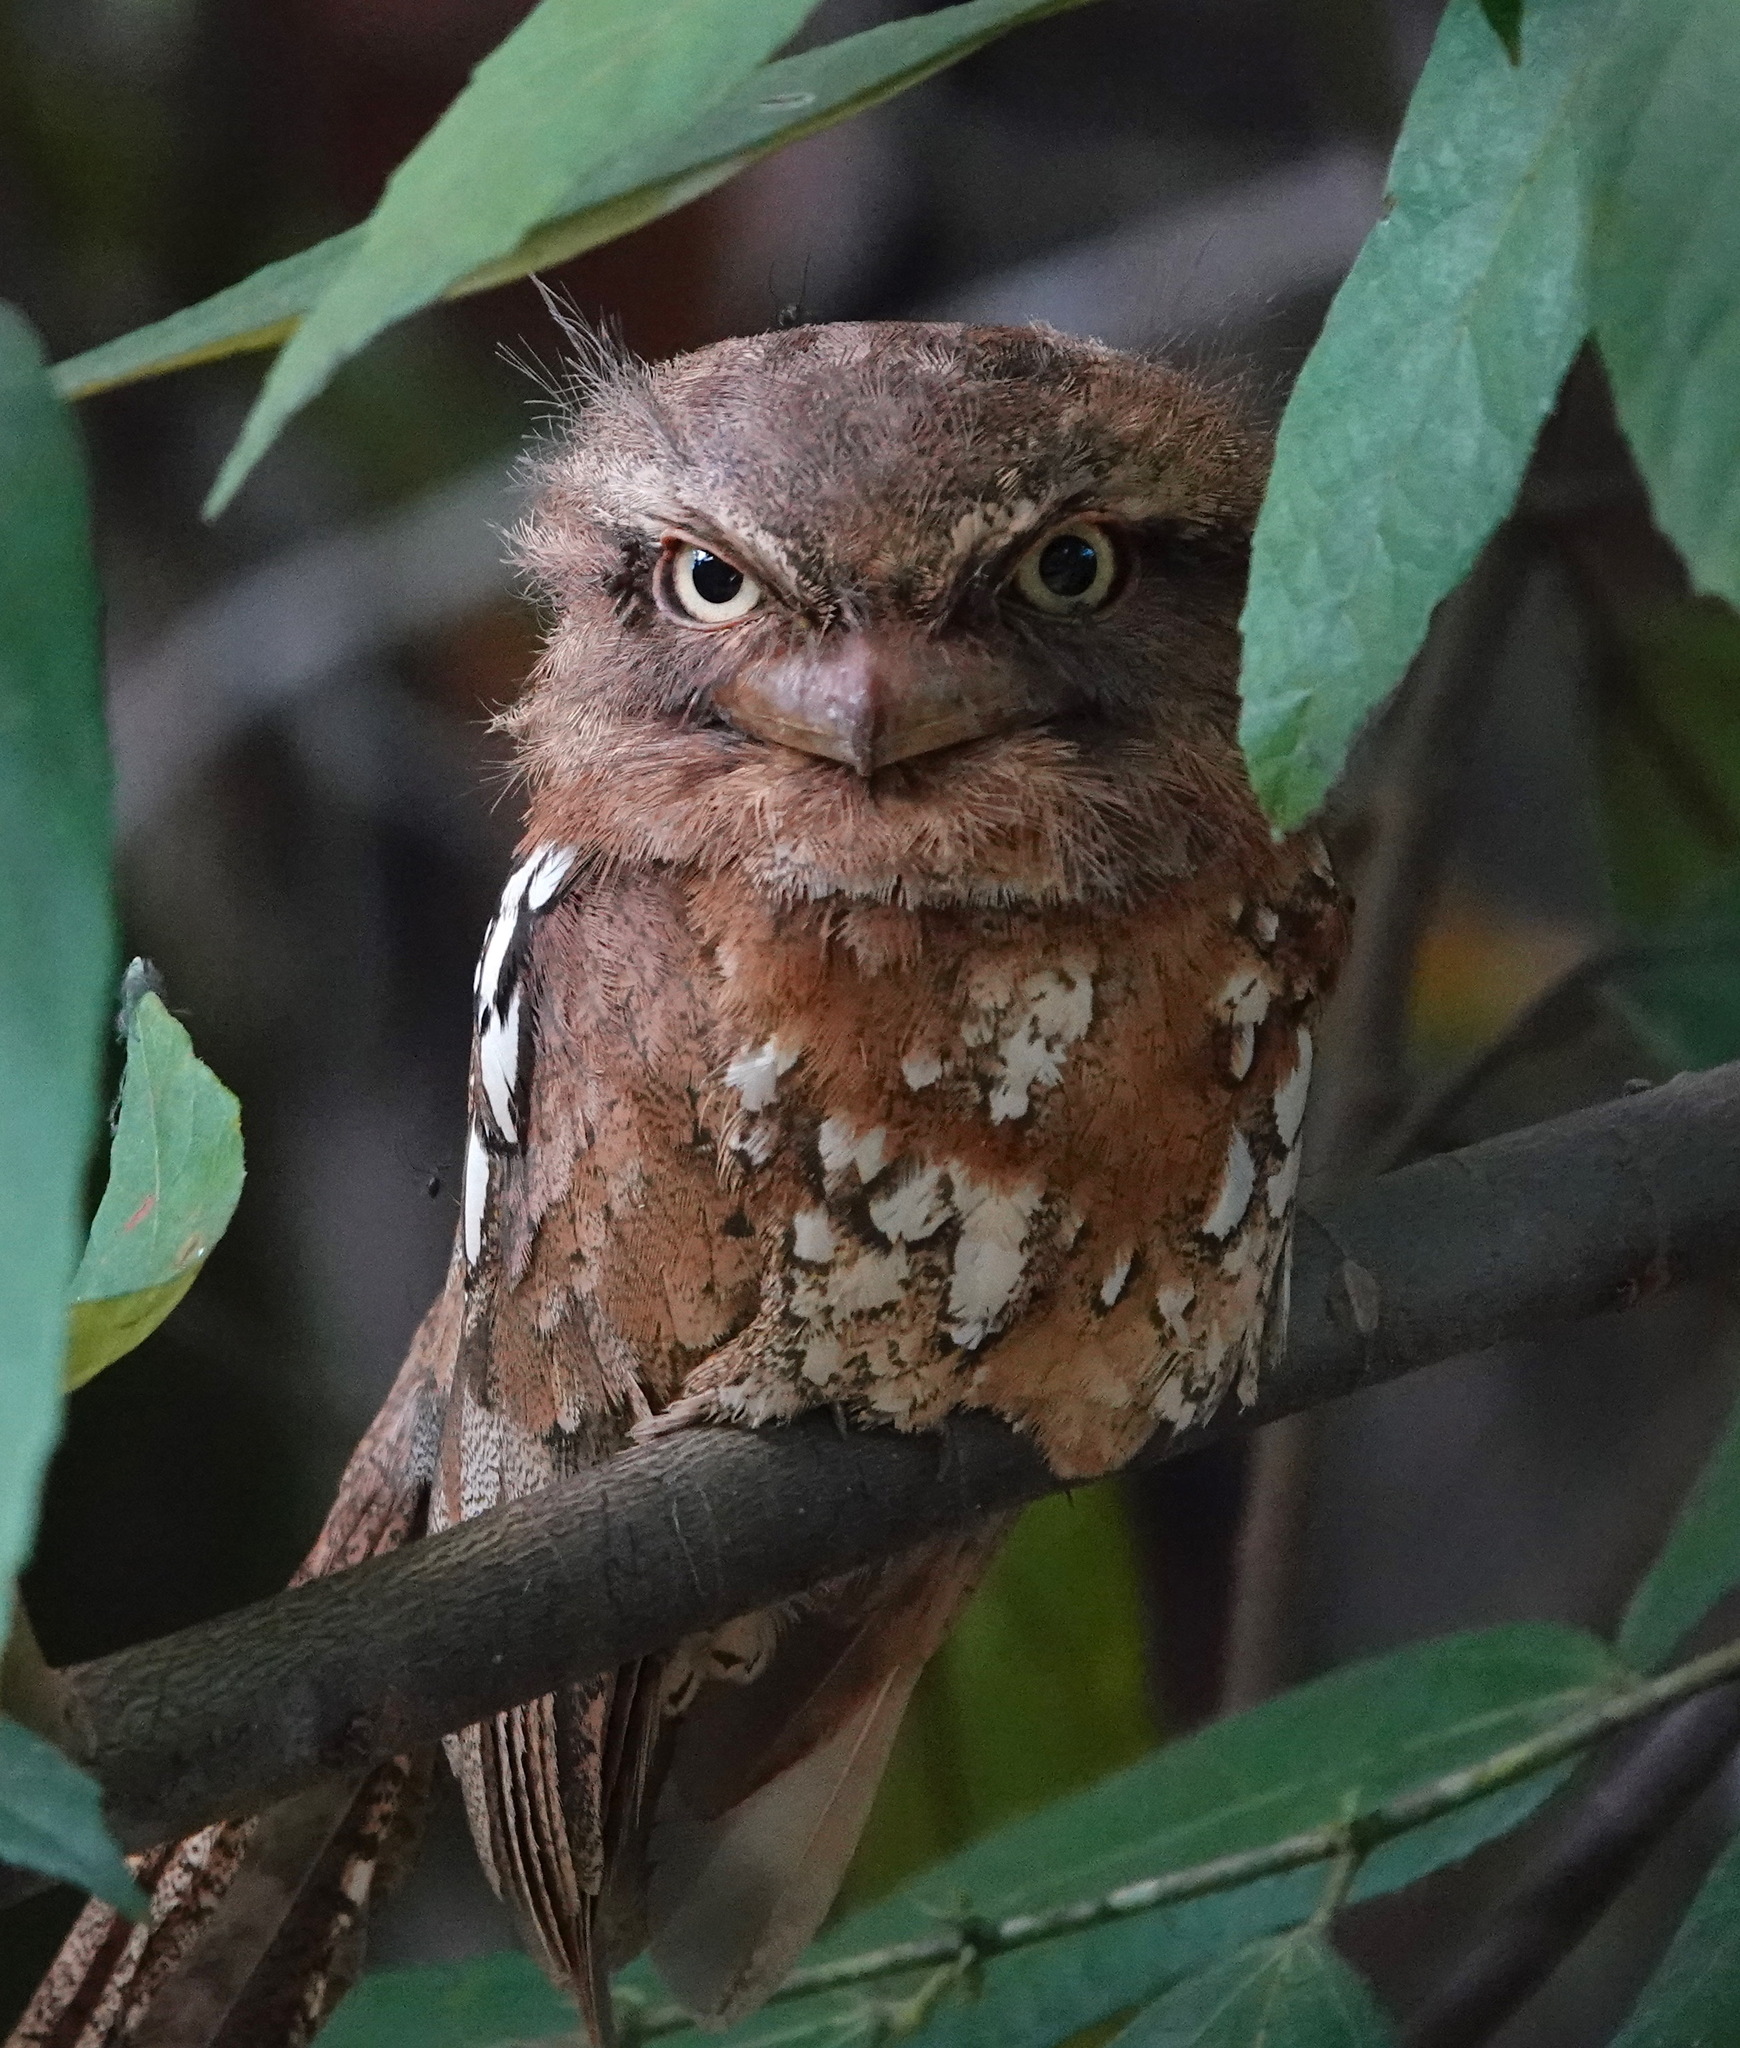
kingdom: Animalia
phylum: Chordata
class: Aves
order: Caprimulgiformes
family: Podargidae
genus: Batrachostomus
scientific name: Batrachostomus cornutus
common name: Sunda frogmouth
